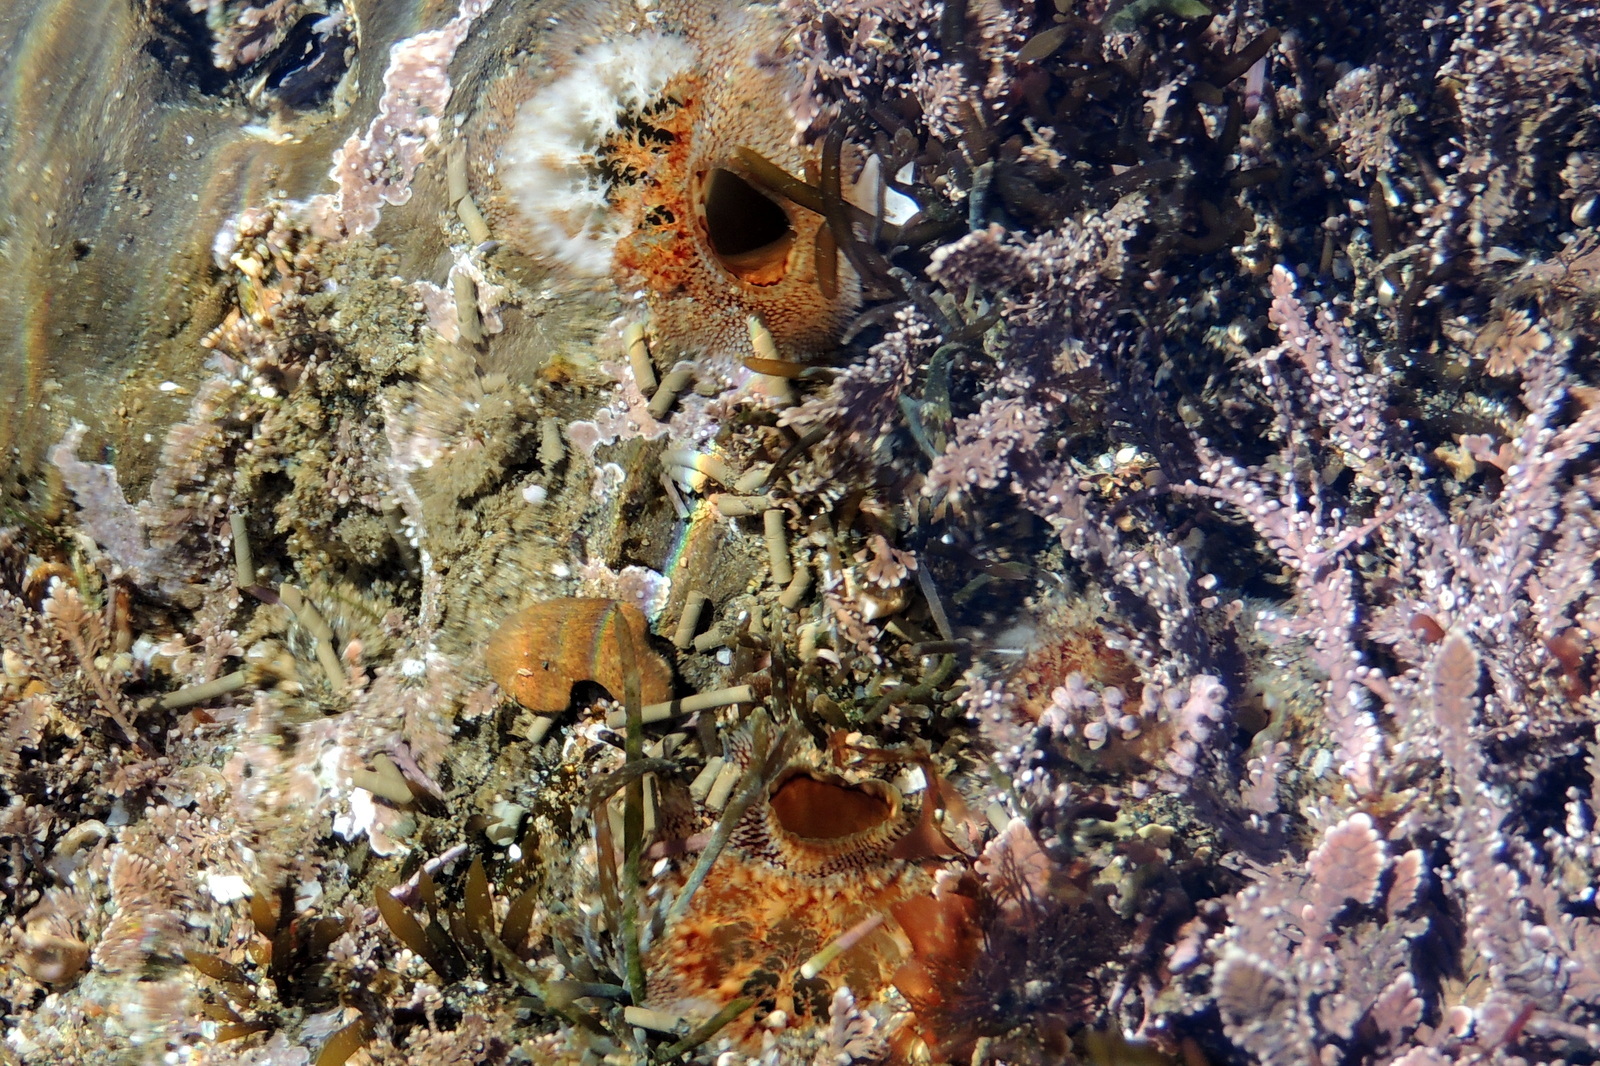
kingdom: Animalia
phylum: Mollusca
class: Bivalvia
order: Myida
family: Pholadidae
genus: Parapholas
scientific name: Parapholas californica
